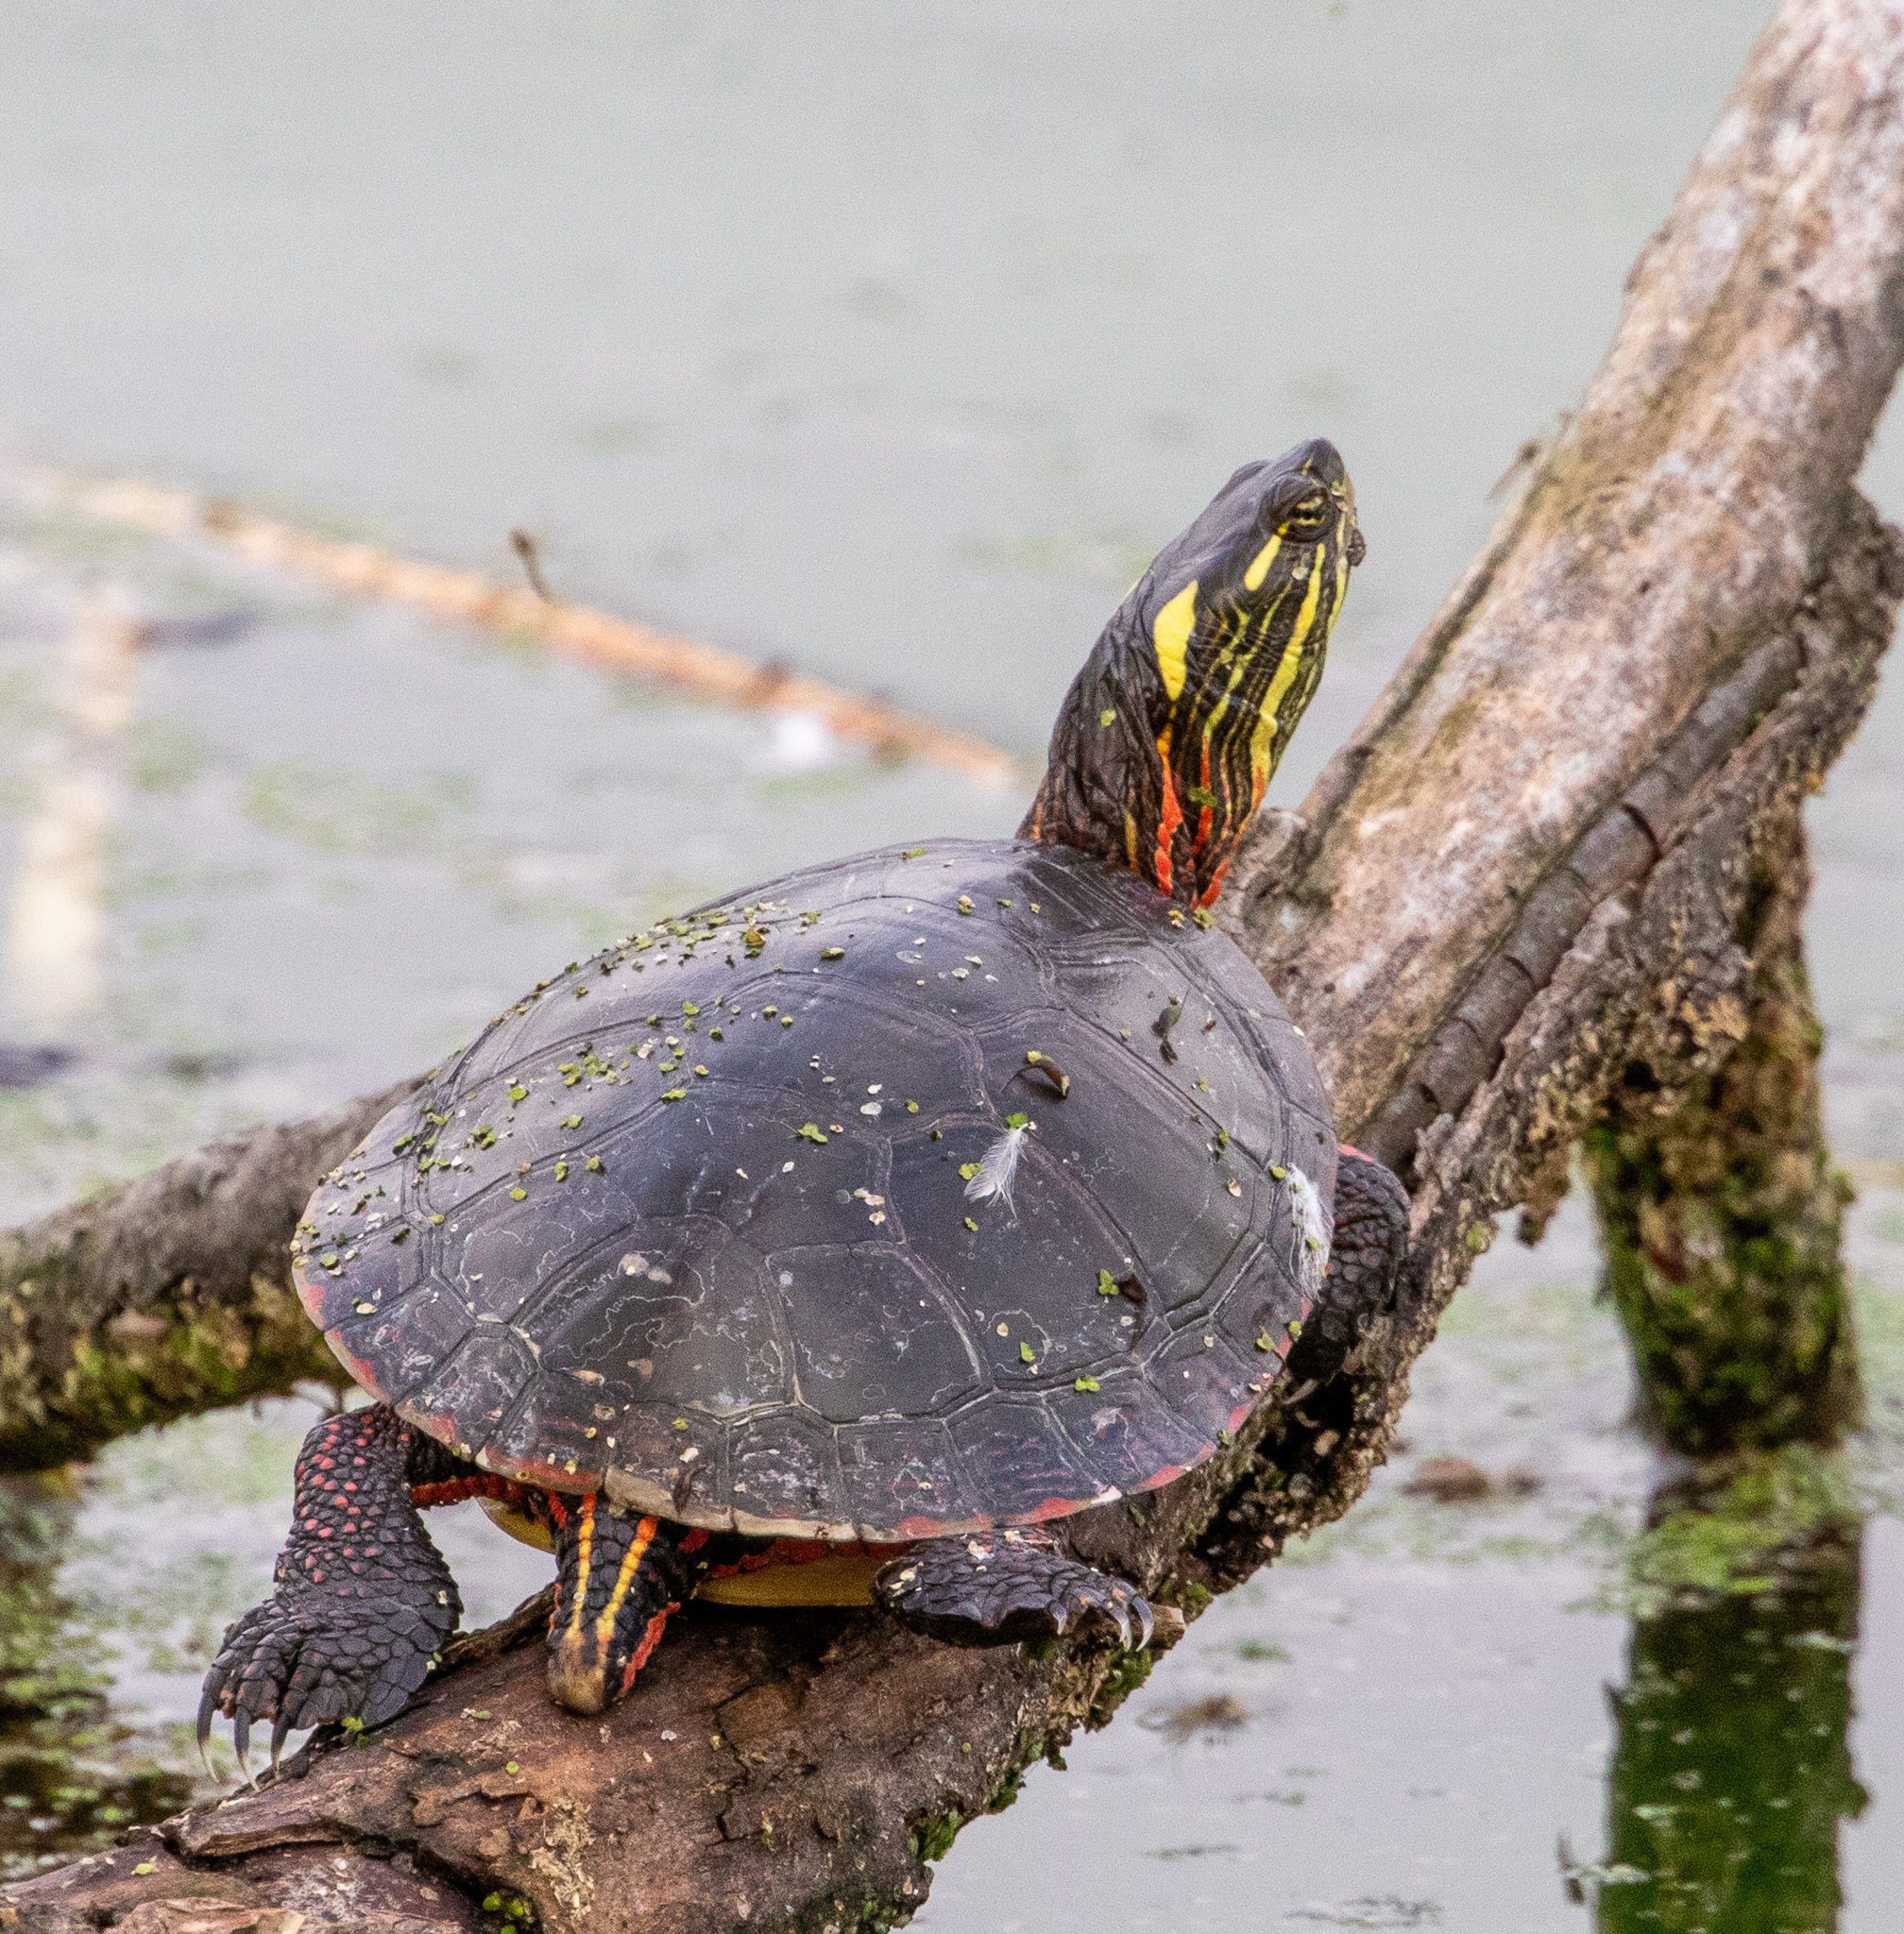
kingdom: Animalia
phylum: Chordata
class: Testudines
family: Emydidae
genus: Chrysemys
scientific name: Chrysemys picta
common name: Painted turtle
